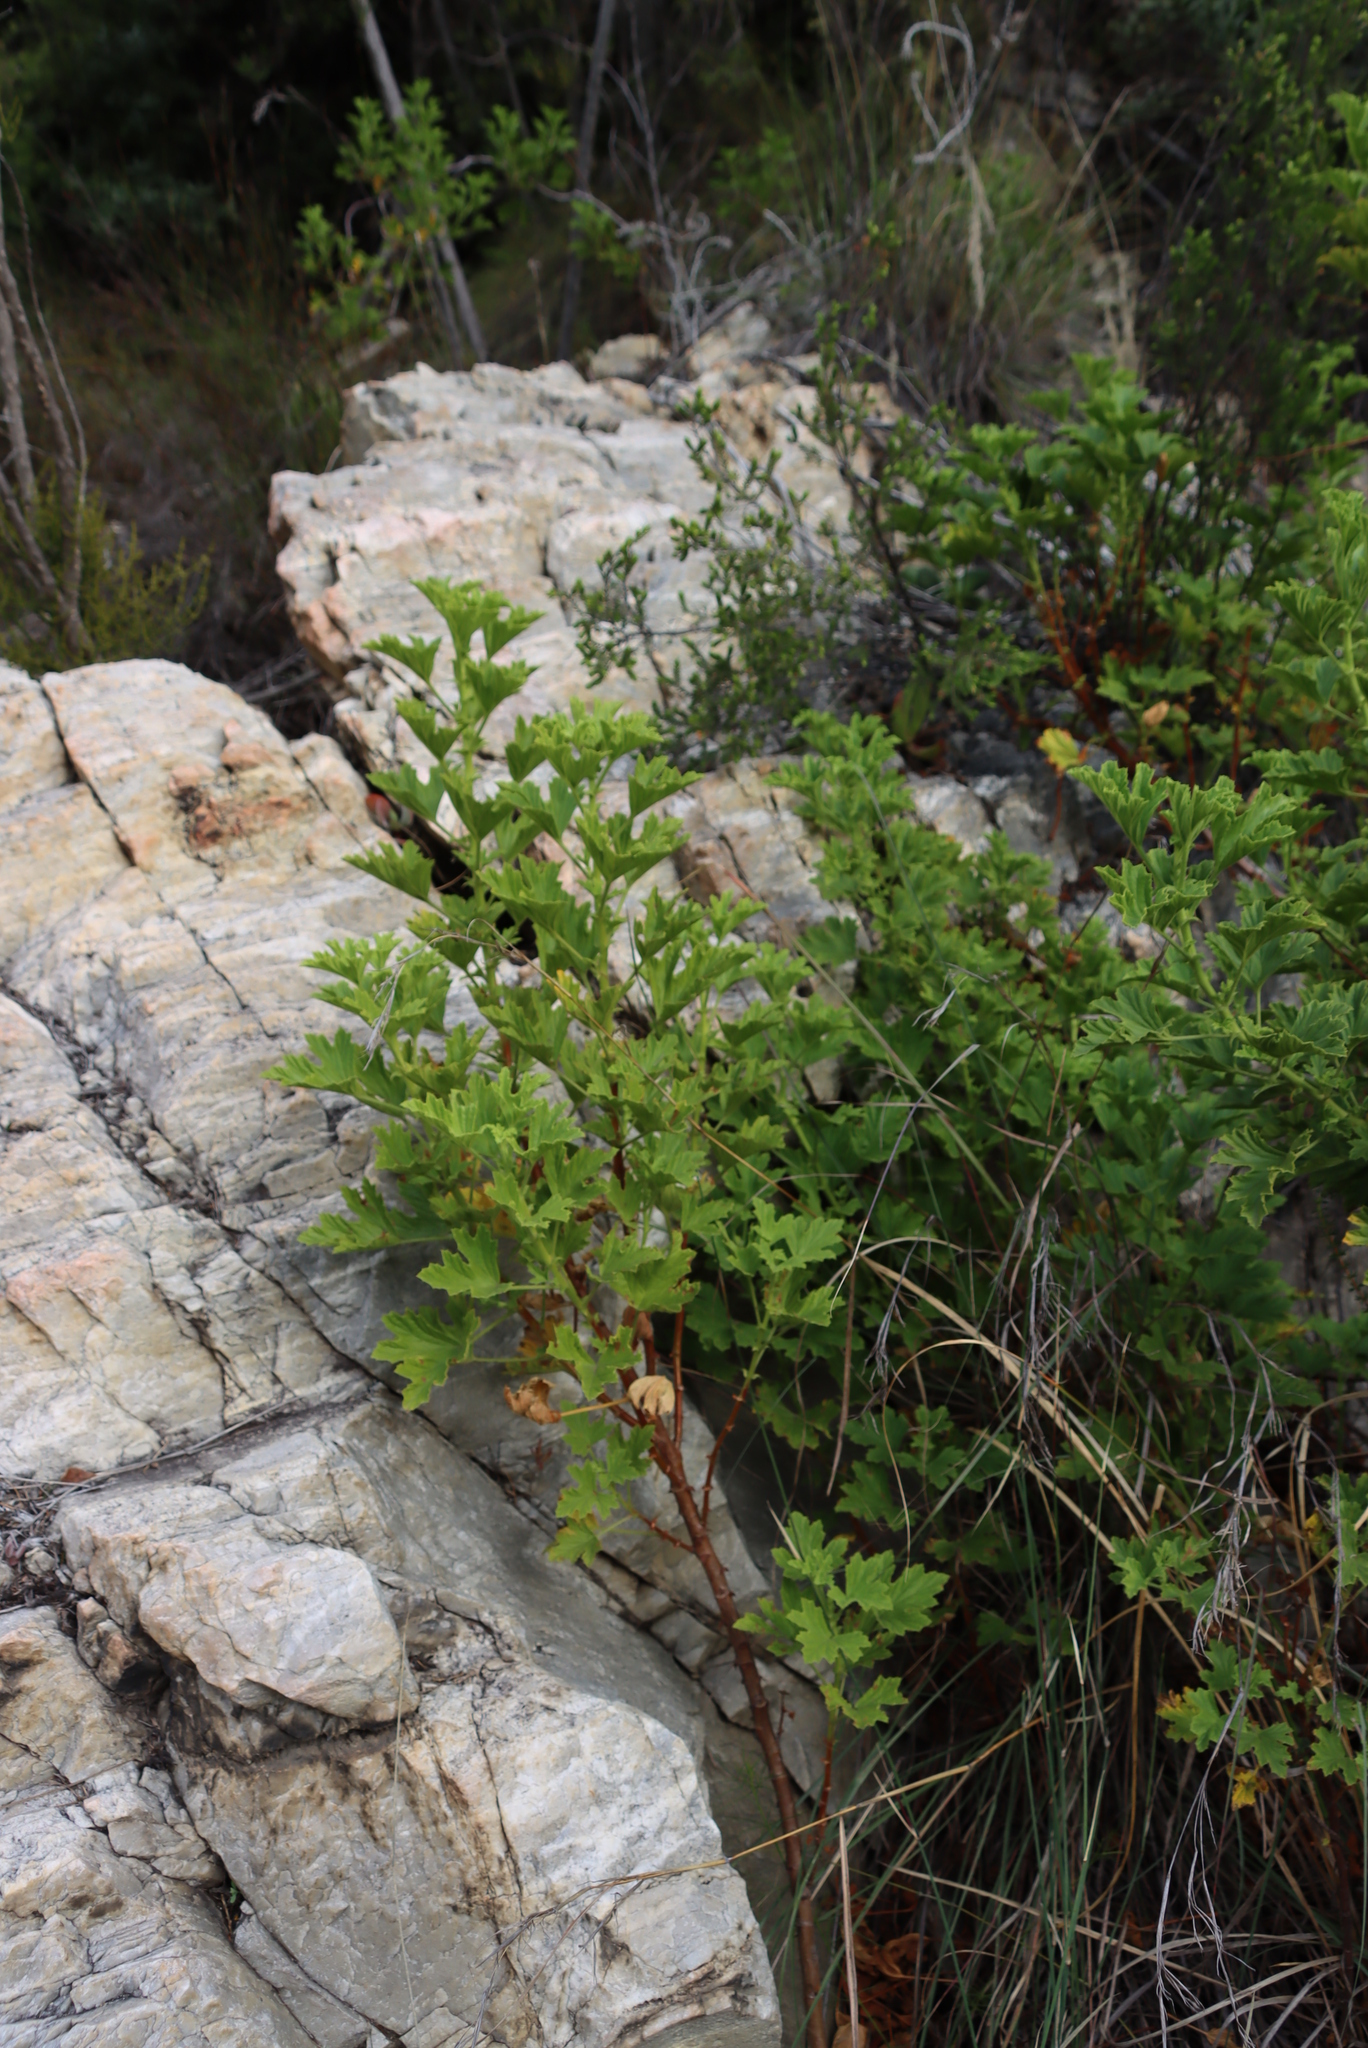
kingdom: Plantae
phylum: Tracheophyta
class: Magnoliopsida
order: Geraniales
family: Geraniaceae
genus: Pelargonium
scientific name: Pelargonium ribifolium
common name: Currant-leaf pelargonium
